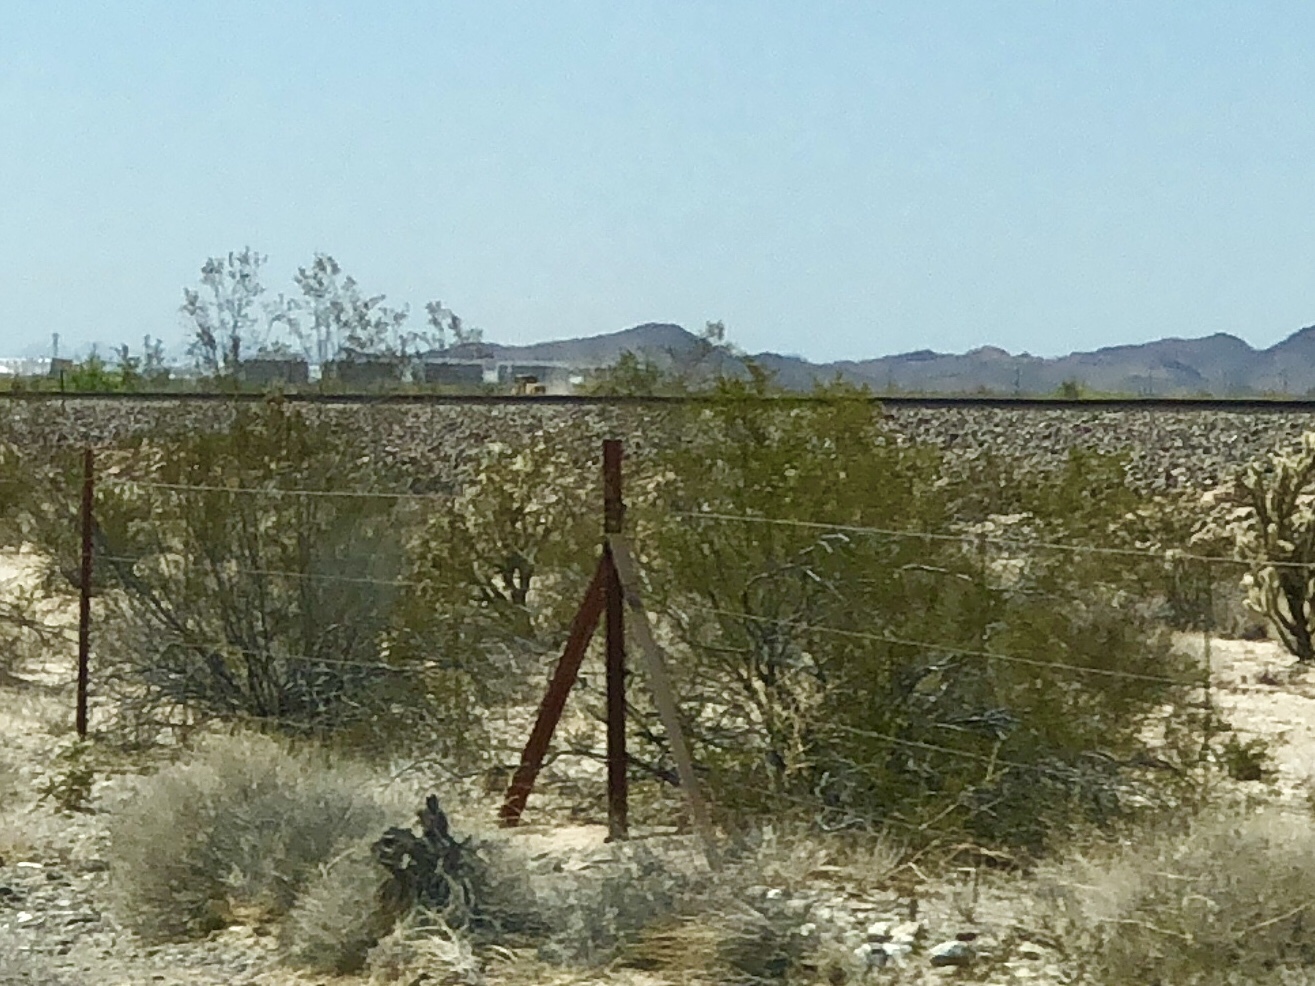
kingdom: Plantae
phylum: Tracheophyta
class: Magnoliopsida
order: Zygophyllales
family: Zygophyllaceae
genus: Larrea
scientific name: Larrea tridentata
